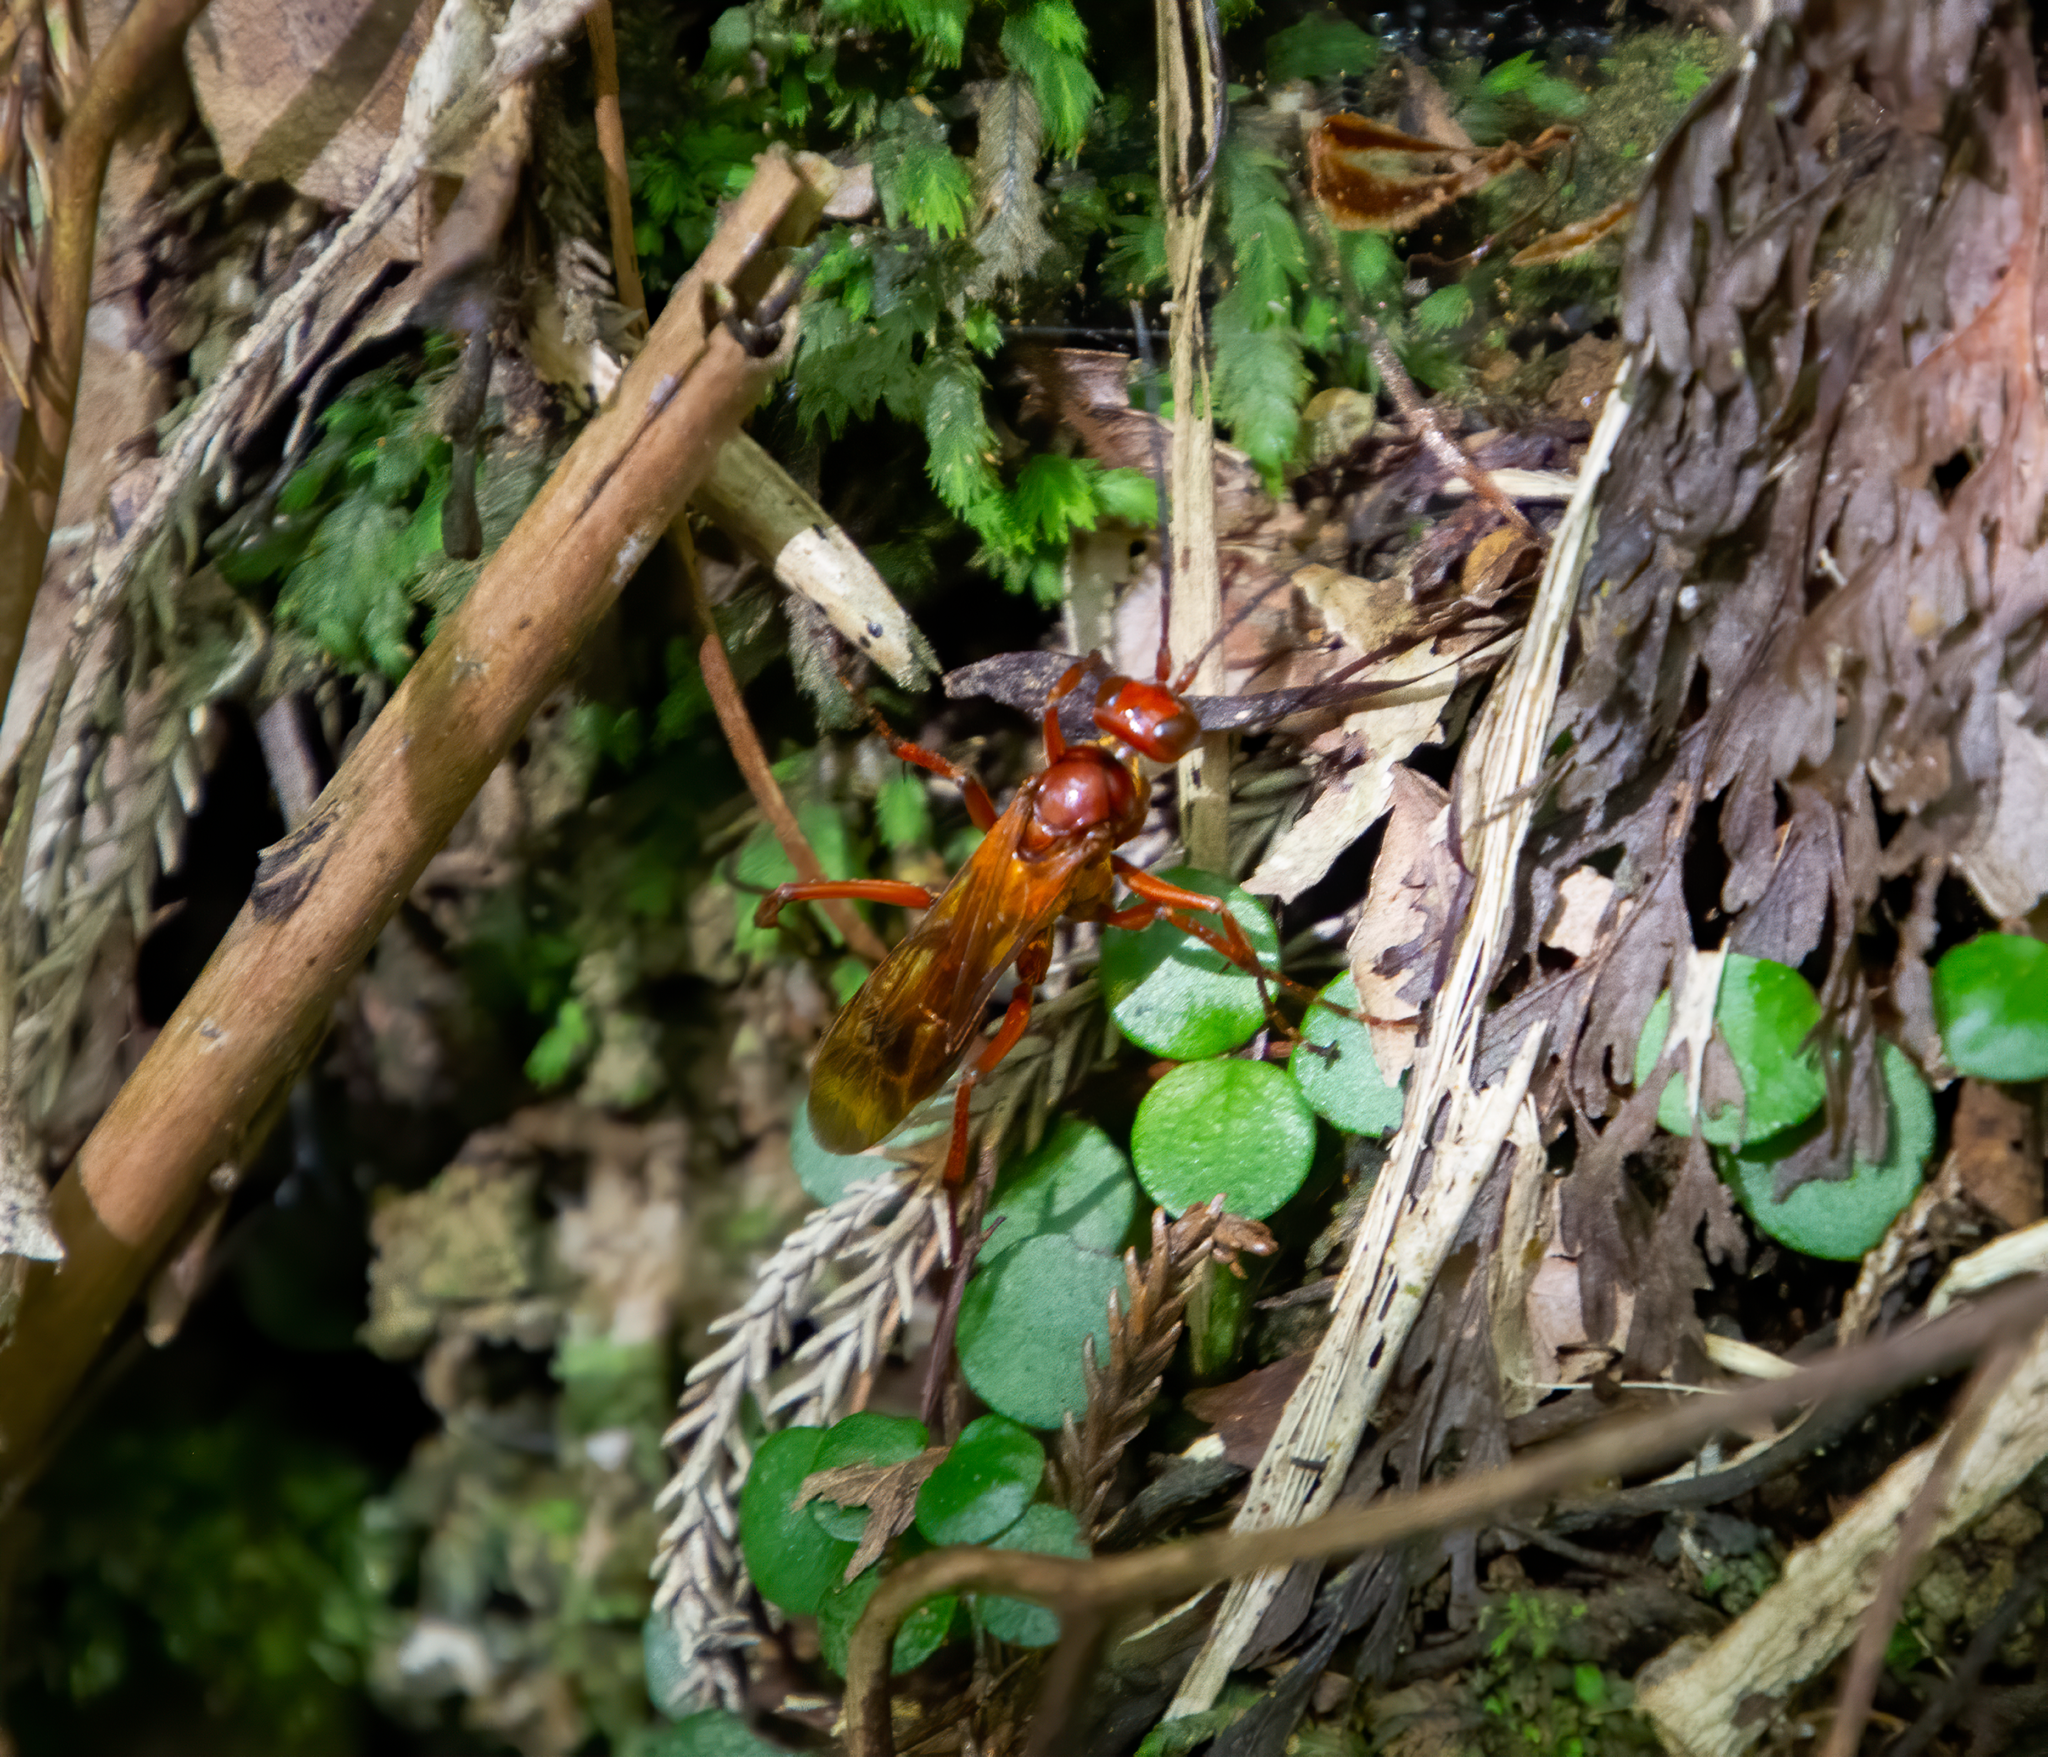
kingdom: Animalia
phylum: Arthropoda
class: Insecta
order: Hymenoptera
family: Pompilidae
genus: Sphictostethus
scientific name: Sphictostethus nitidus
